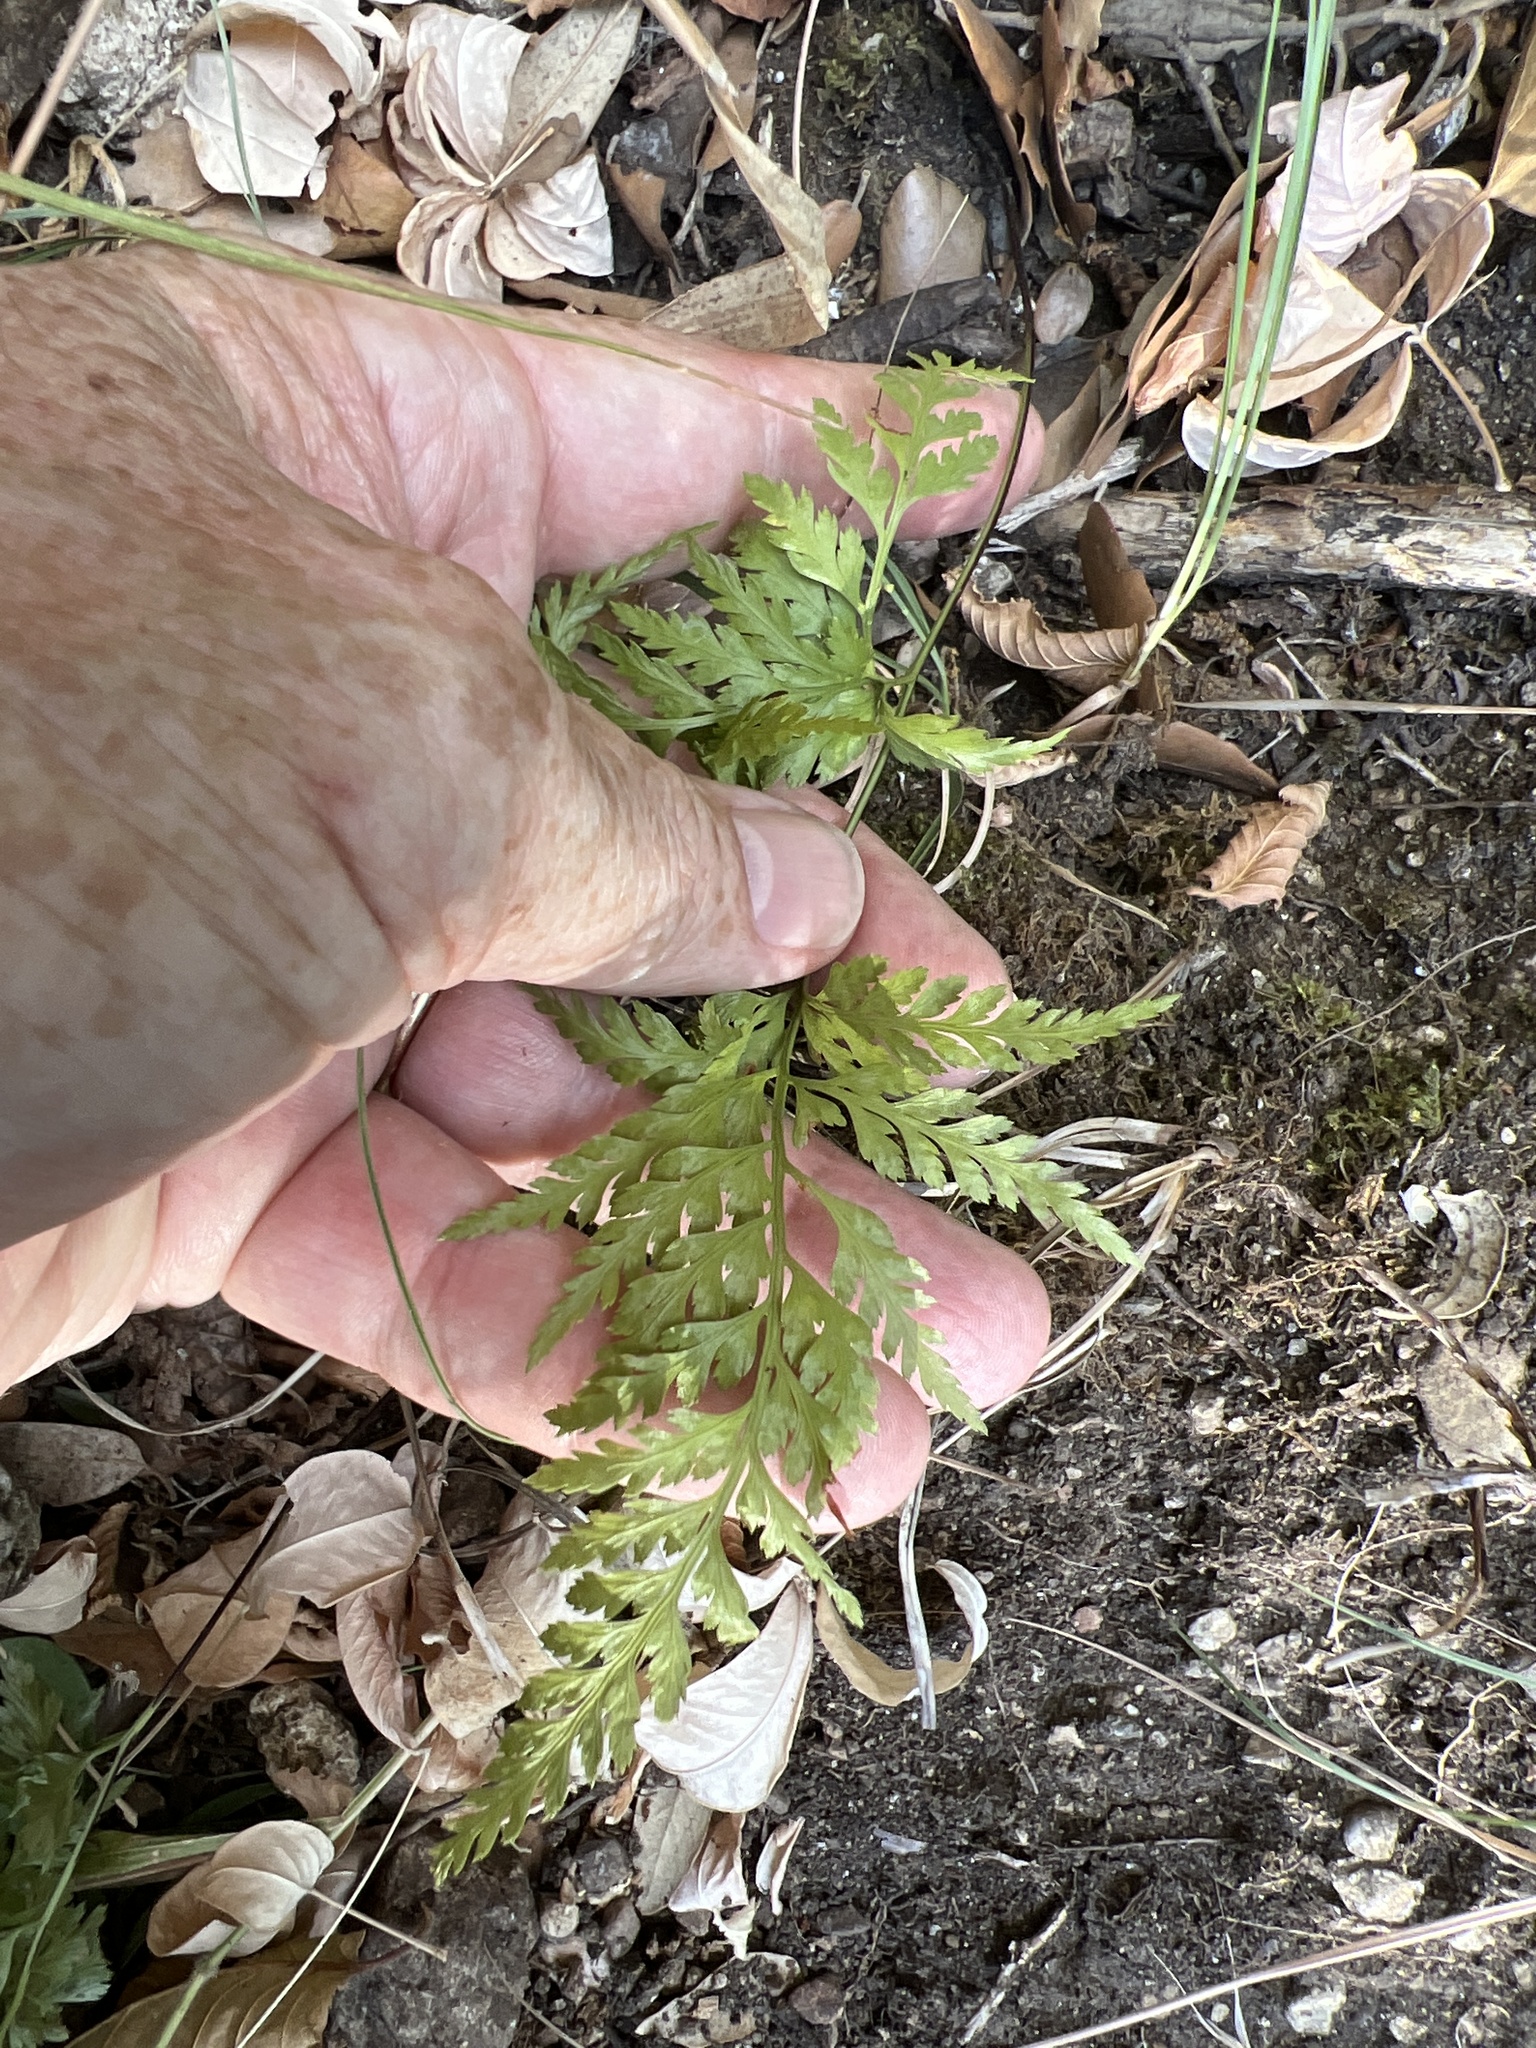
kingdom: Plantae
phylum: Tracheophyta
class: Polypodiopsida
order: Polypodiales
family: Aspleniaceae
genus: Asplenium
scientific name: Asplenium onopteris
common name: Irish spleenwort
